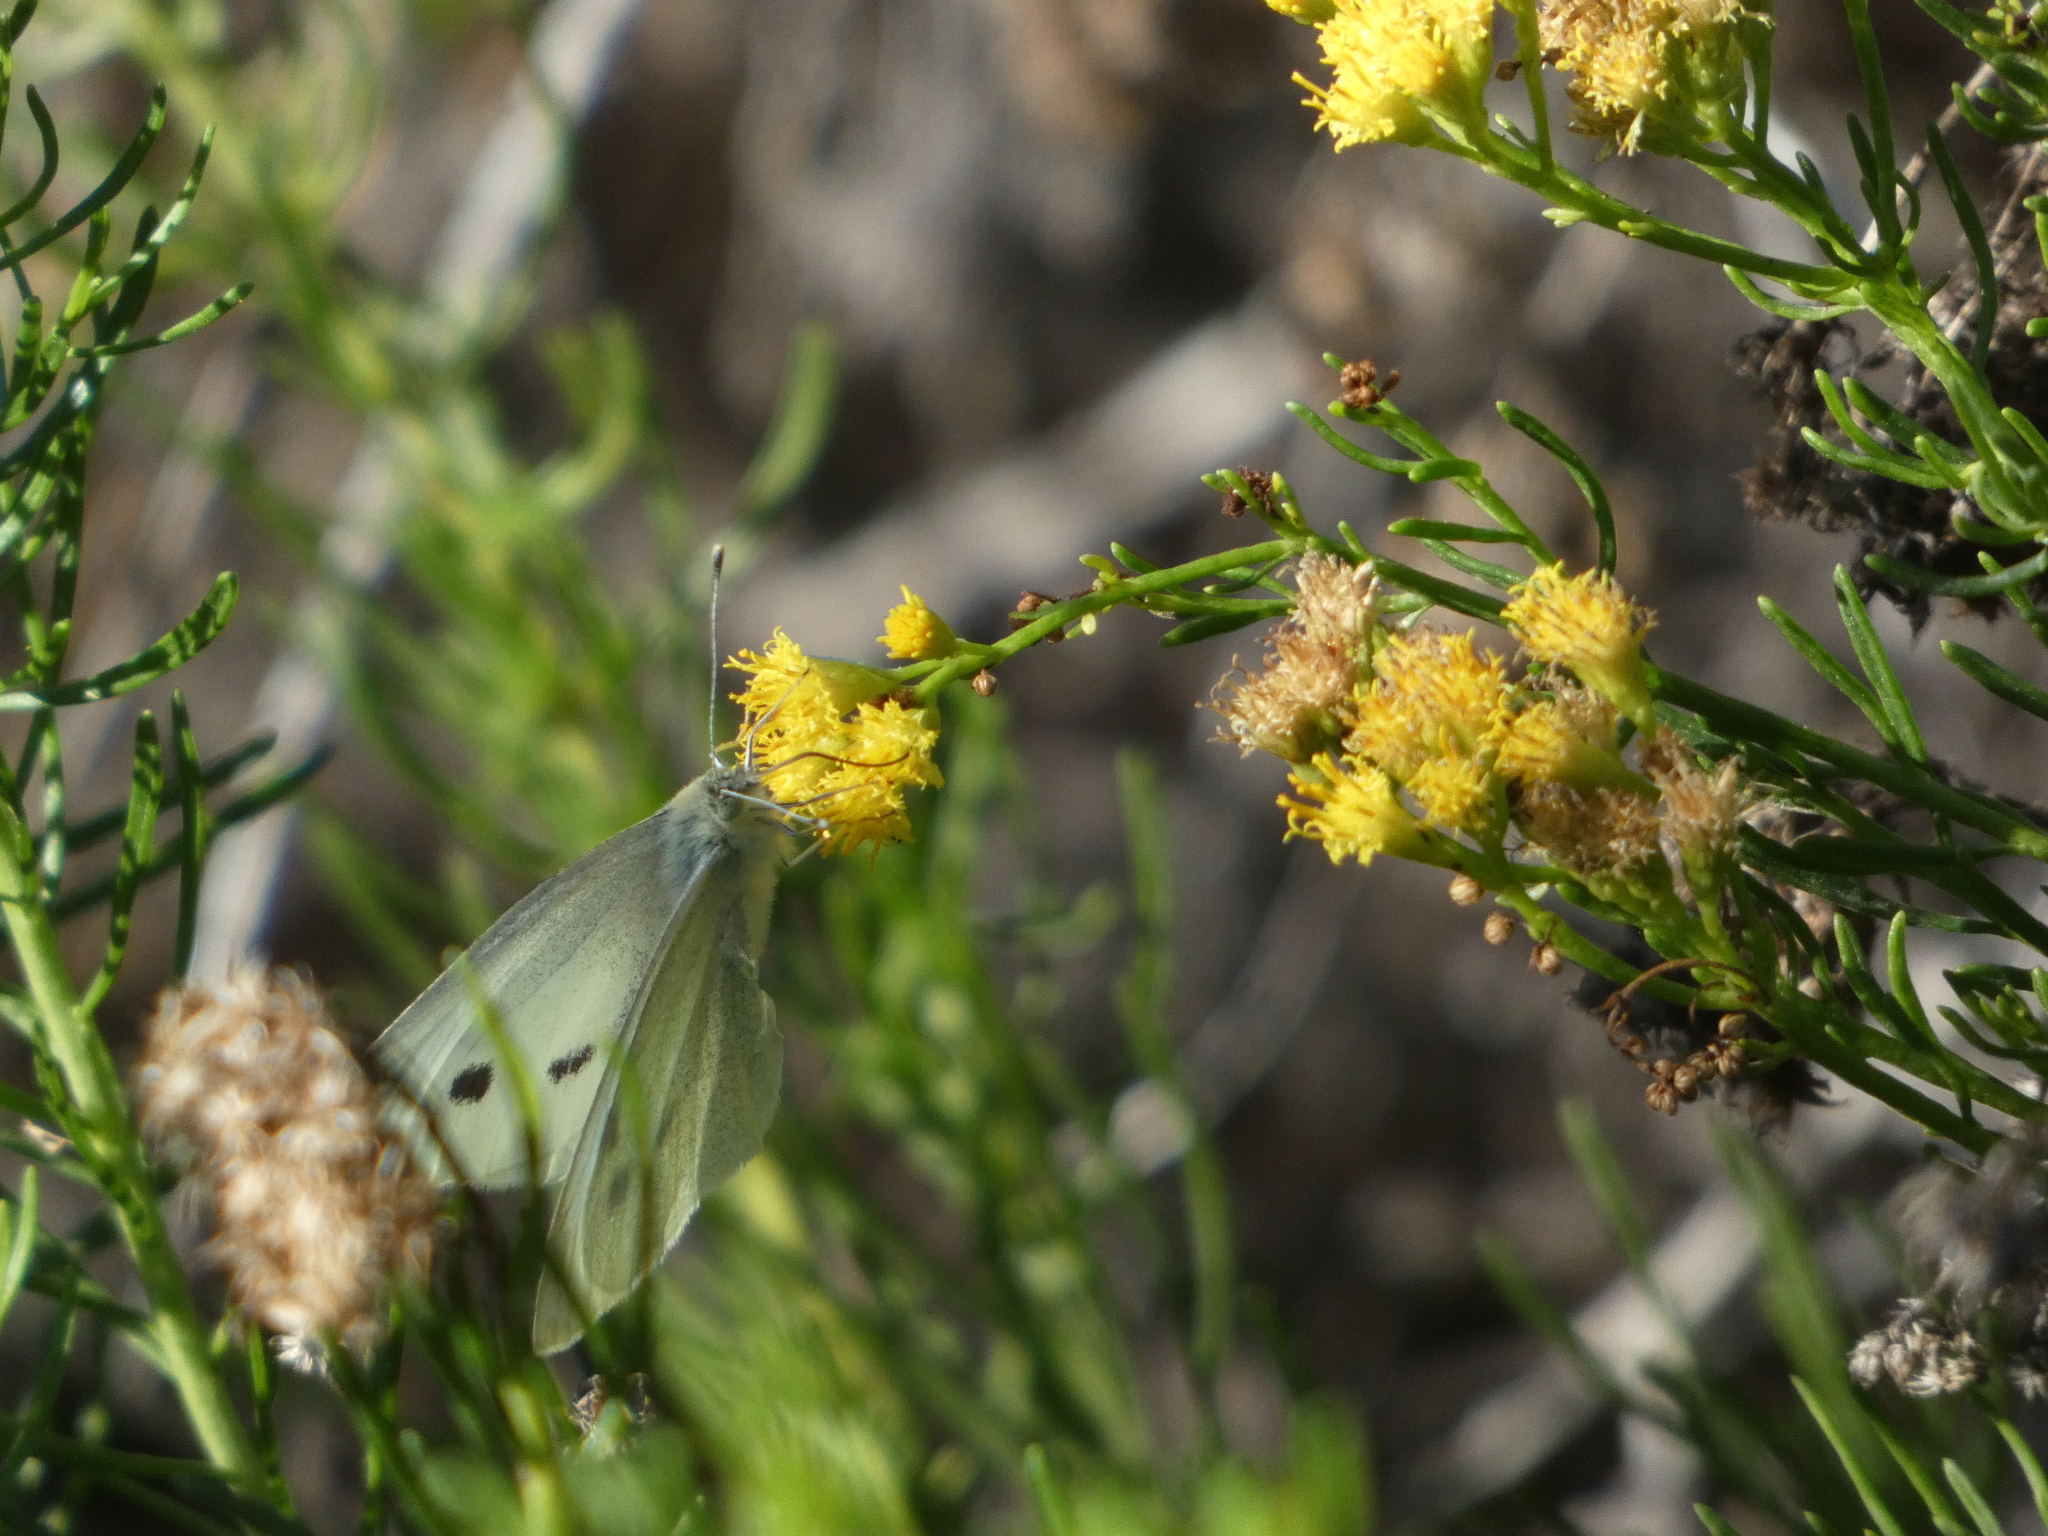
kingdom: Animalia
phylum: Arthropoda
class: Insecta
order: Lepidoptera
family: Pieridae
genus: Pieris
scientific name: Pieris rapae
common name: Small white
